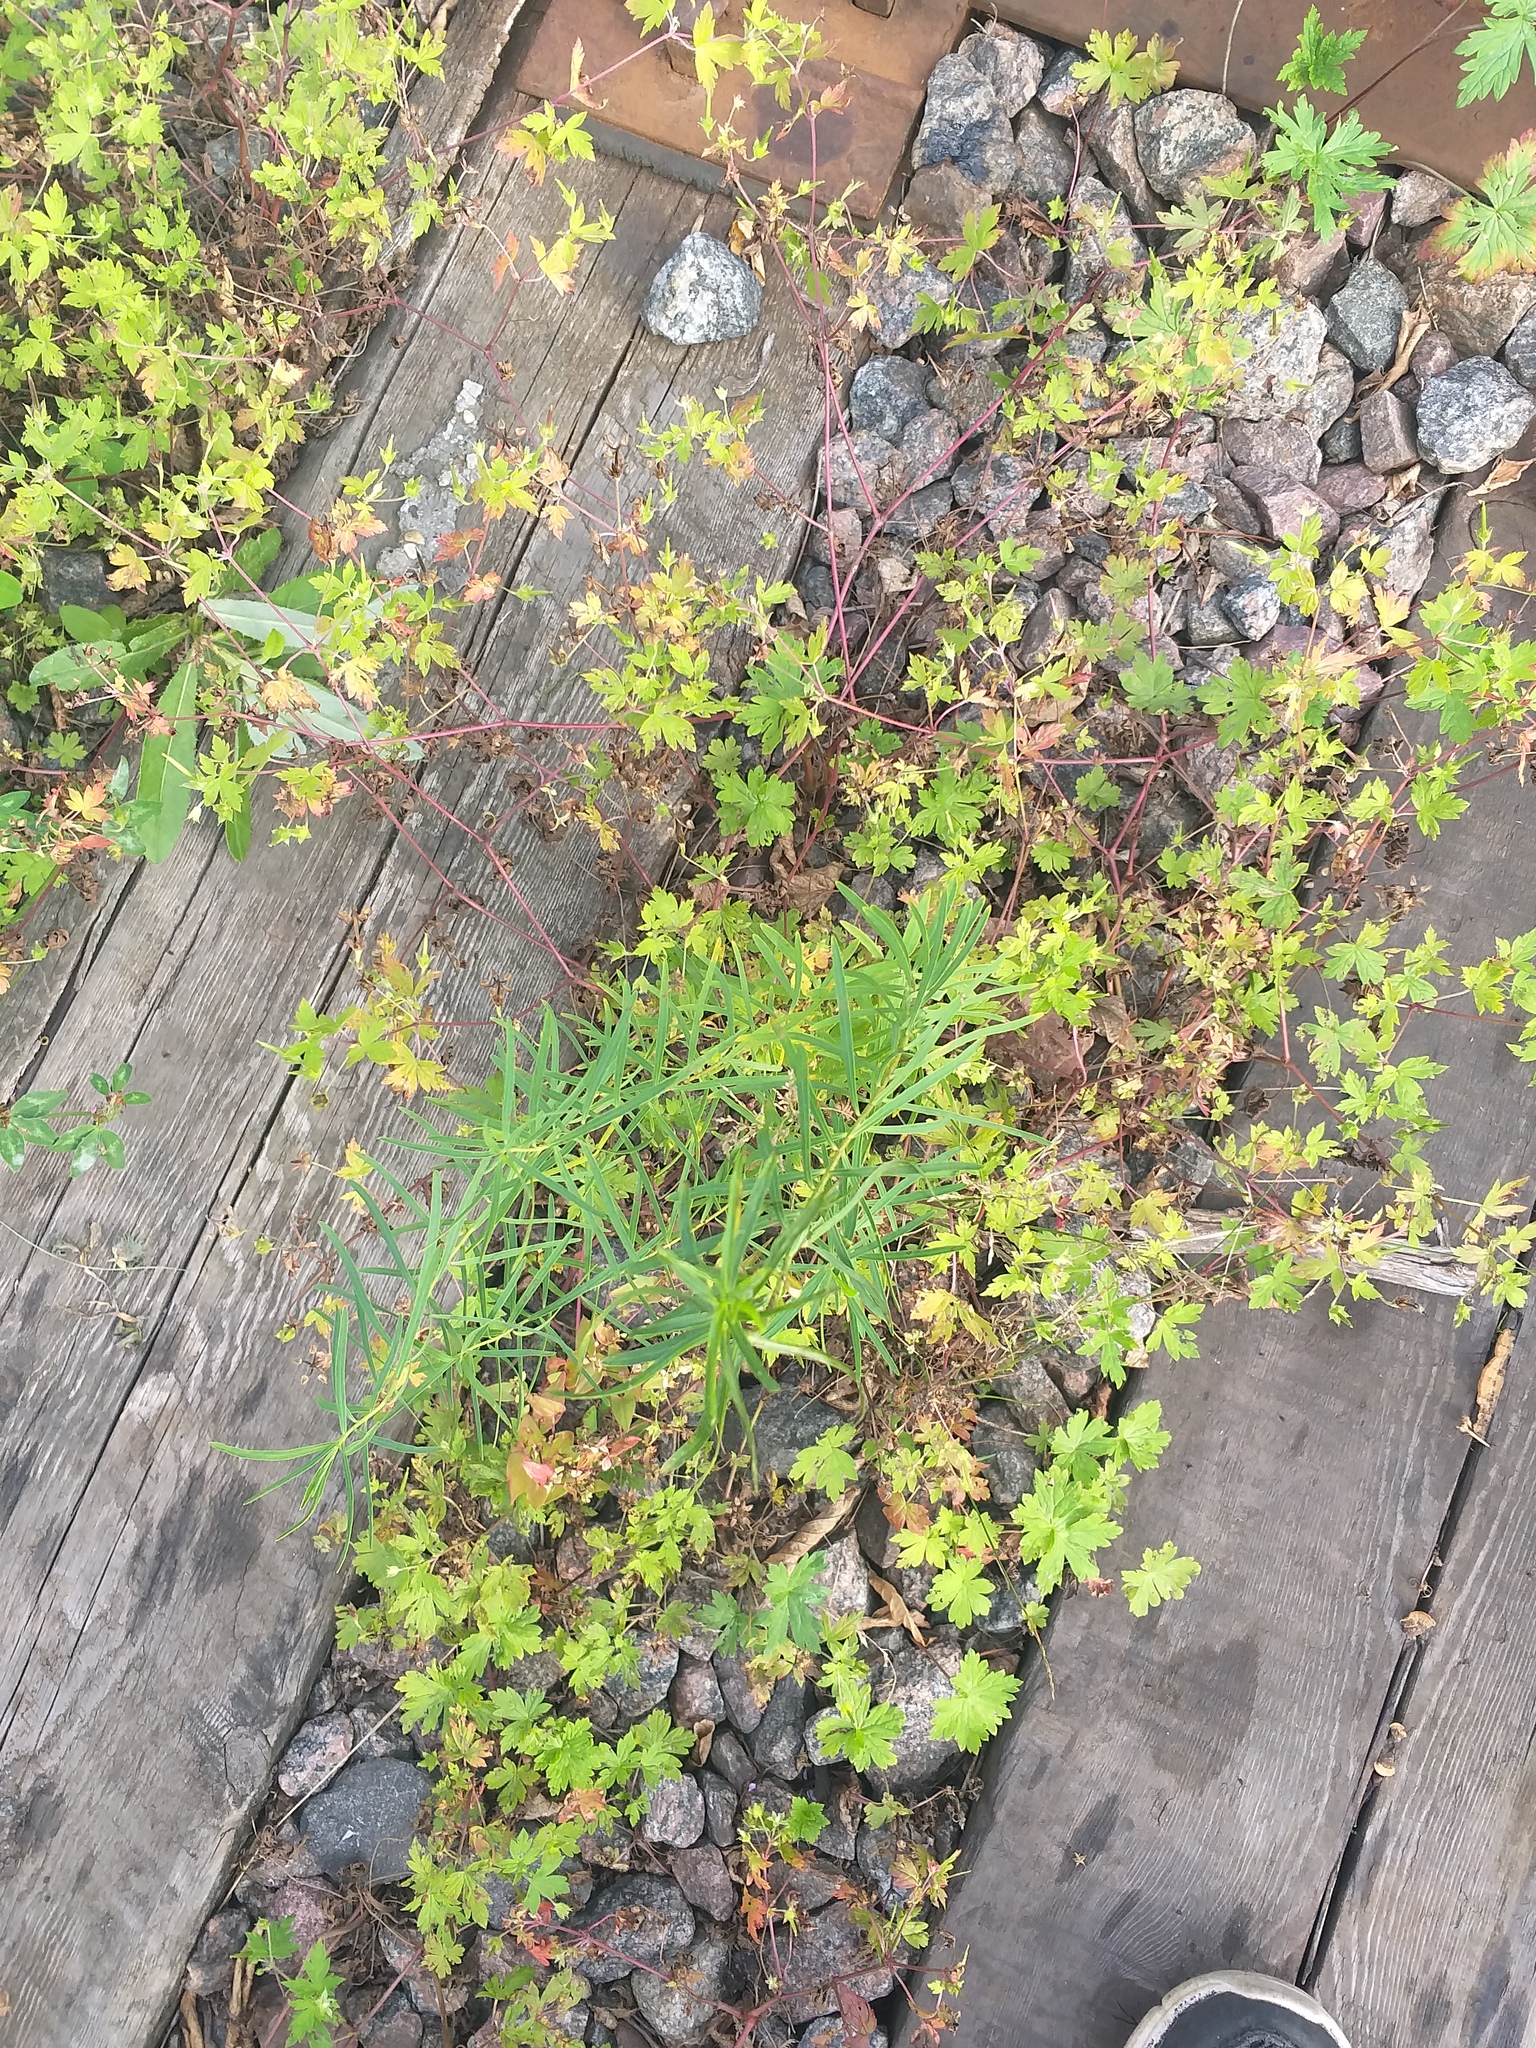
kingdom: Plantae
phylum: Tracheophyta
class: Magnoliopsida
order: Malpighiales
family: Euphorbiaceae
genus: Euphorbia
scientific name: Euphorbia virgata
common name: Leafy spurge
